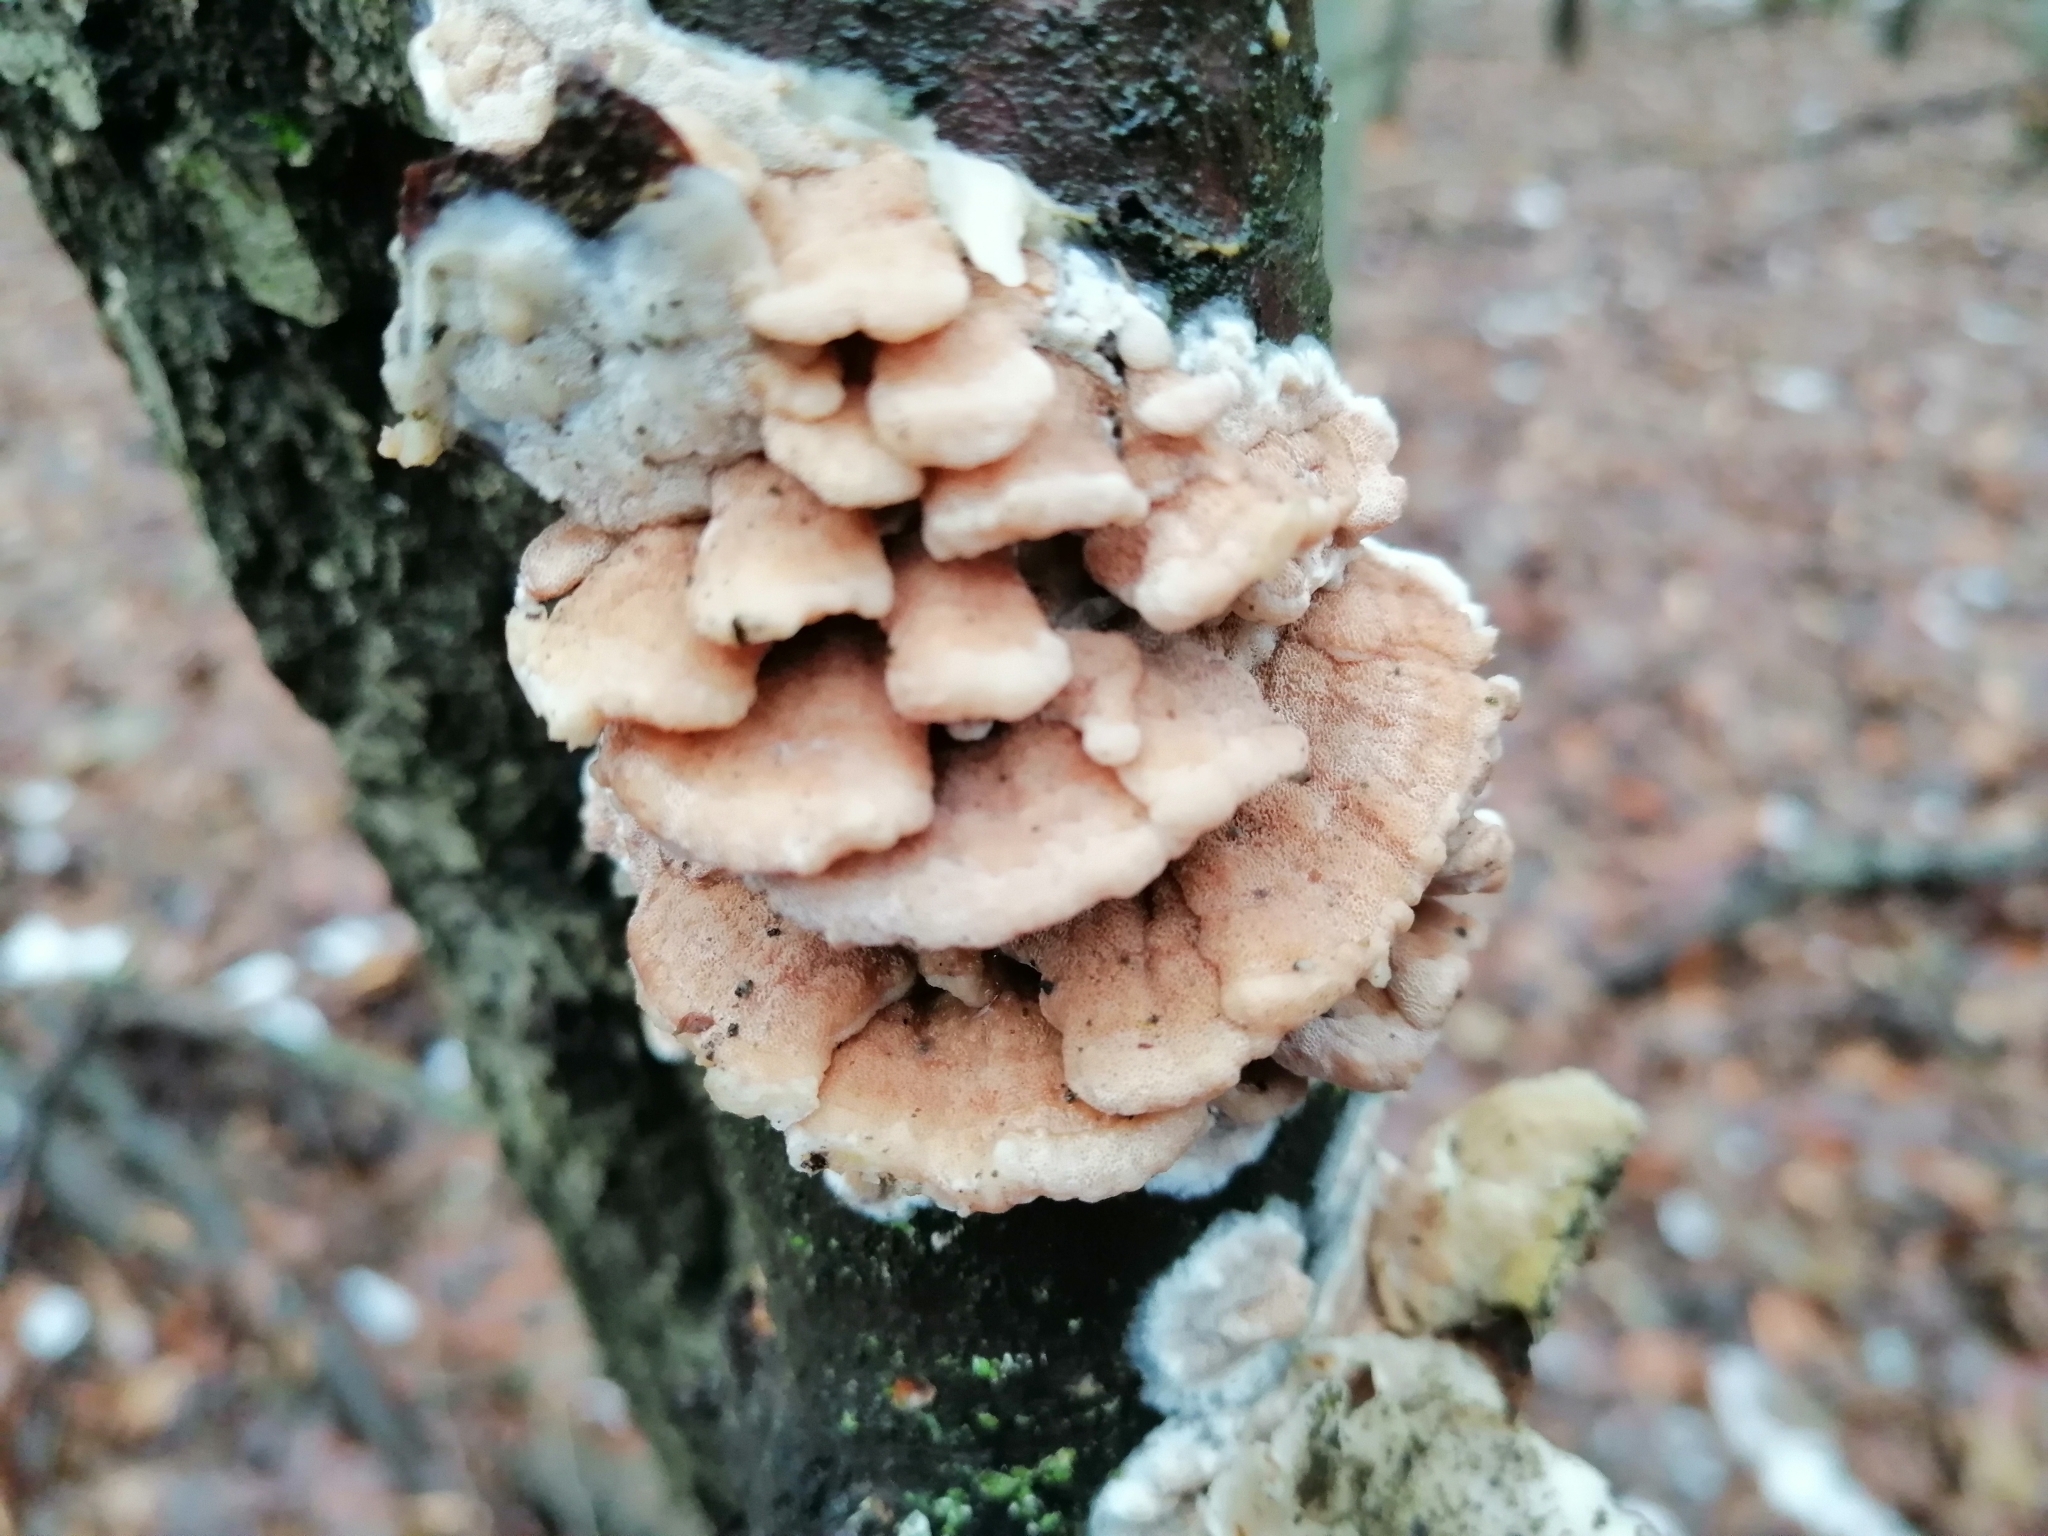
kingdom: Fungi
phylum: Basidiomycota
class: Agaricomycetes
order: Polyporales
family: Meruliaceae
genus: Phlebia
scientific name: Phlebia tremellosa
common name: Jelly rot
